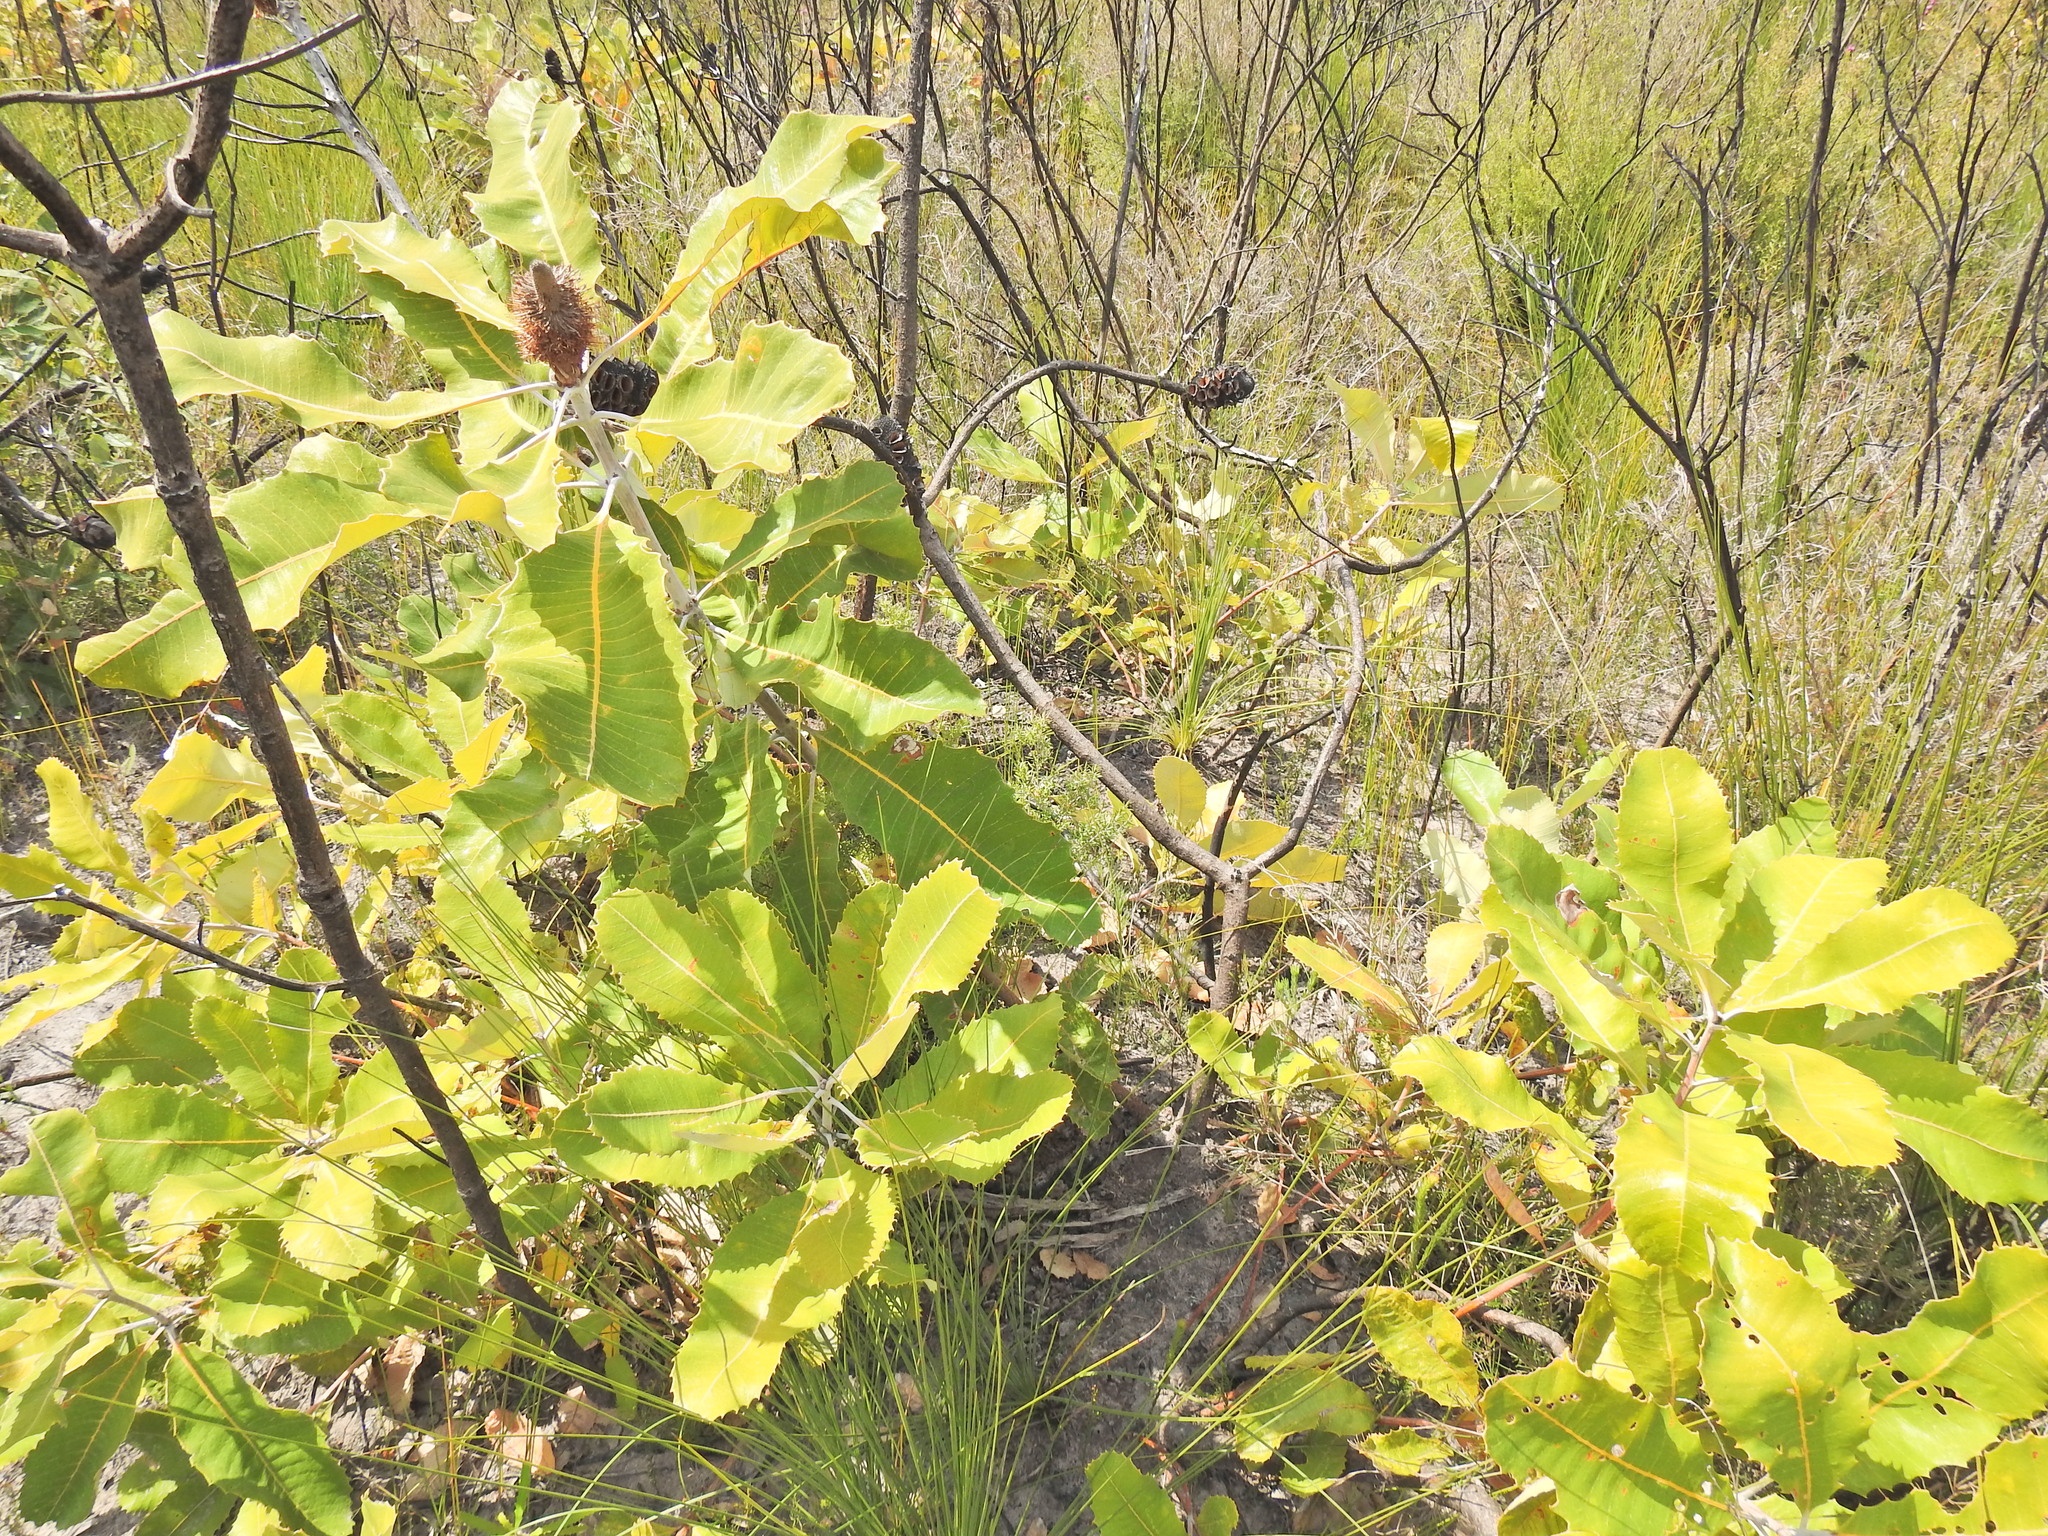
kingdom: Plantae
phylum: Tracheophyta
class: Magnoliopsida
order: Proteales
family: Proteaceae
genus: Banksia
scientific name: Banksia robur
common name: Broadleaf banksia
